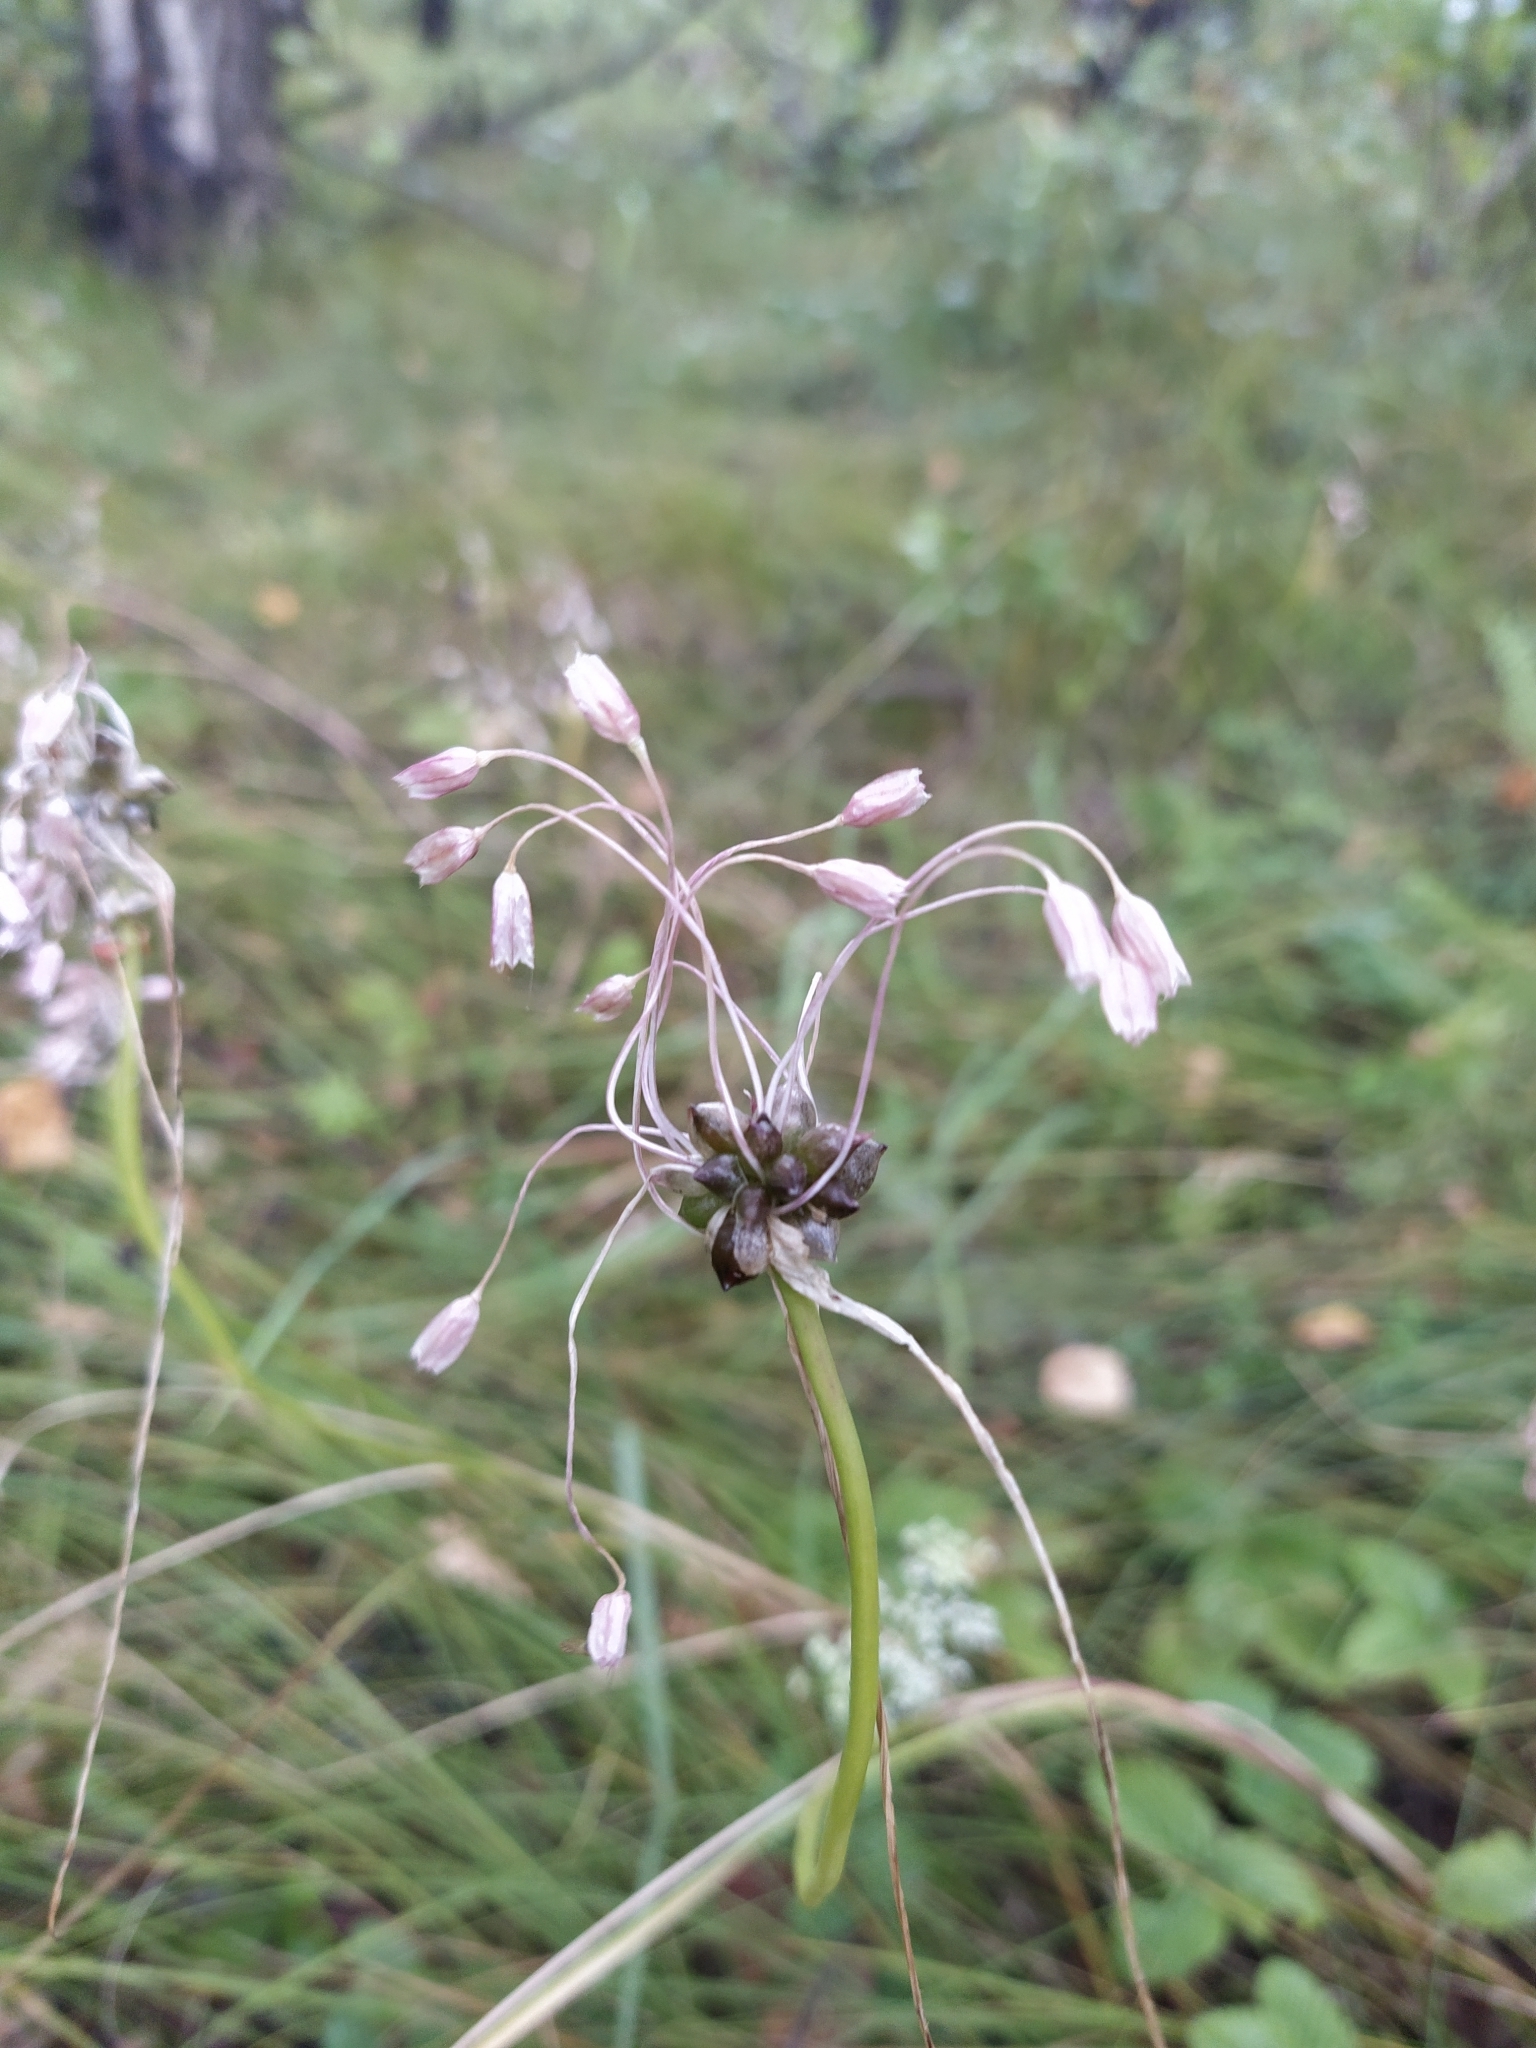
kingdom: Plantae
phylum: Tracheophyta
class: Liliopsida
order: Asparagales
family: Amaryllidaceae
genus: Allium
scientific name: Allium oleraceum
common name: Field garlic
